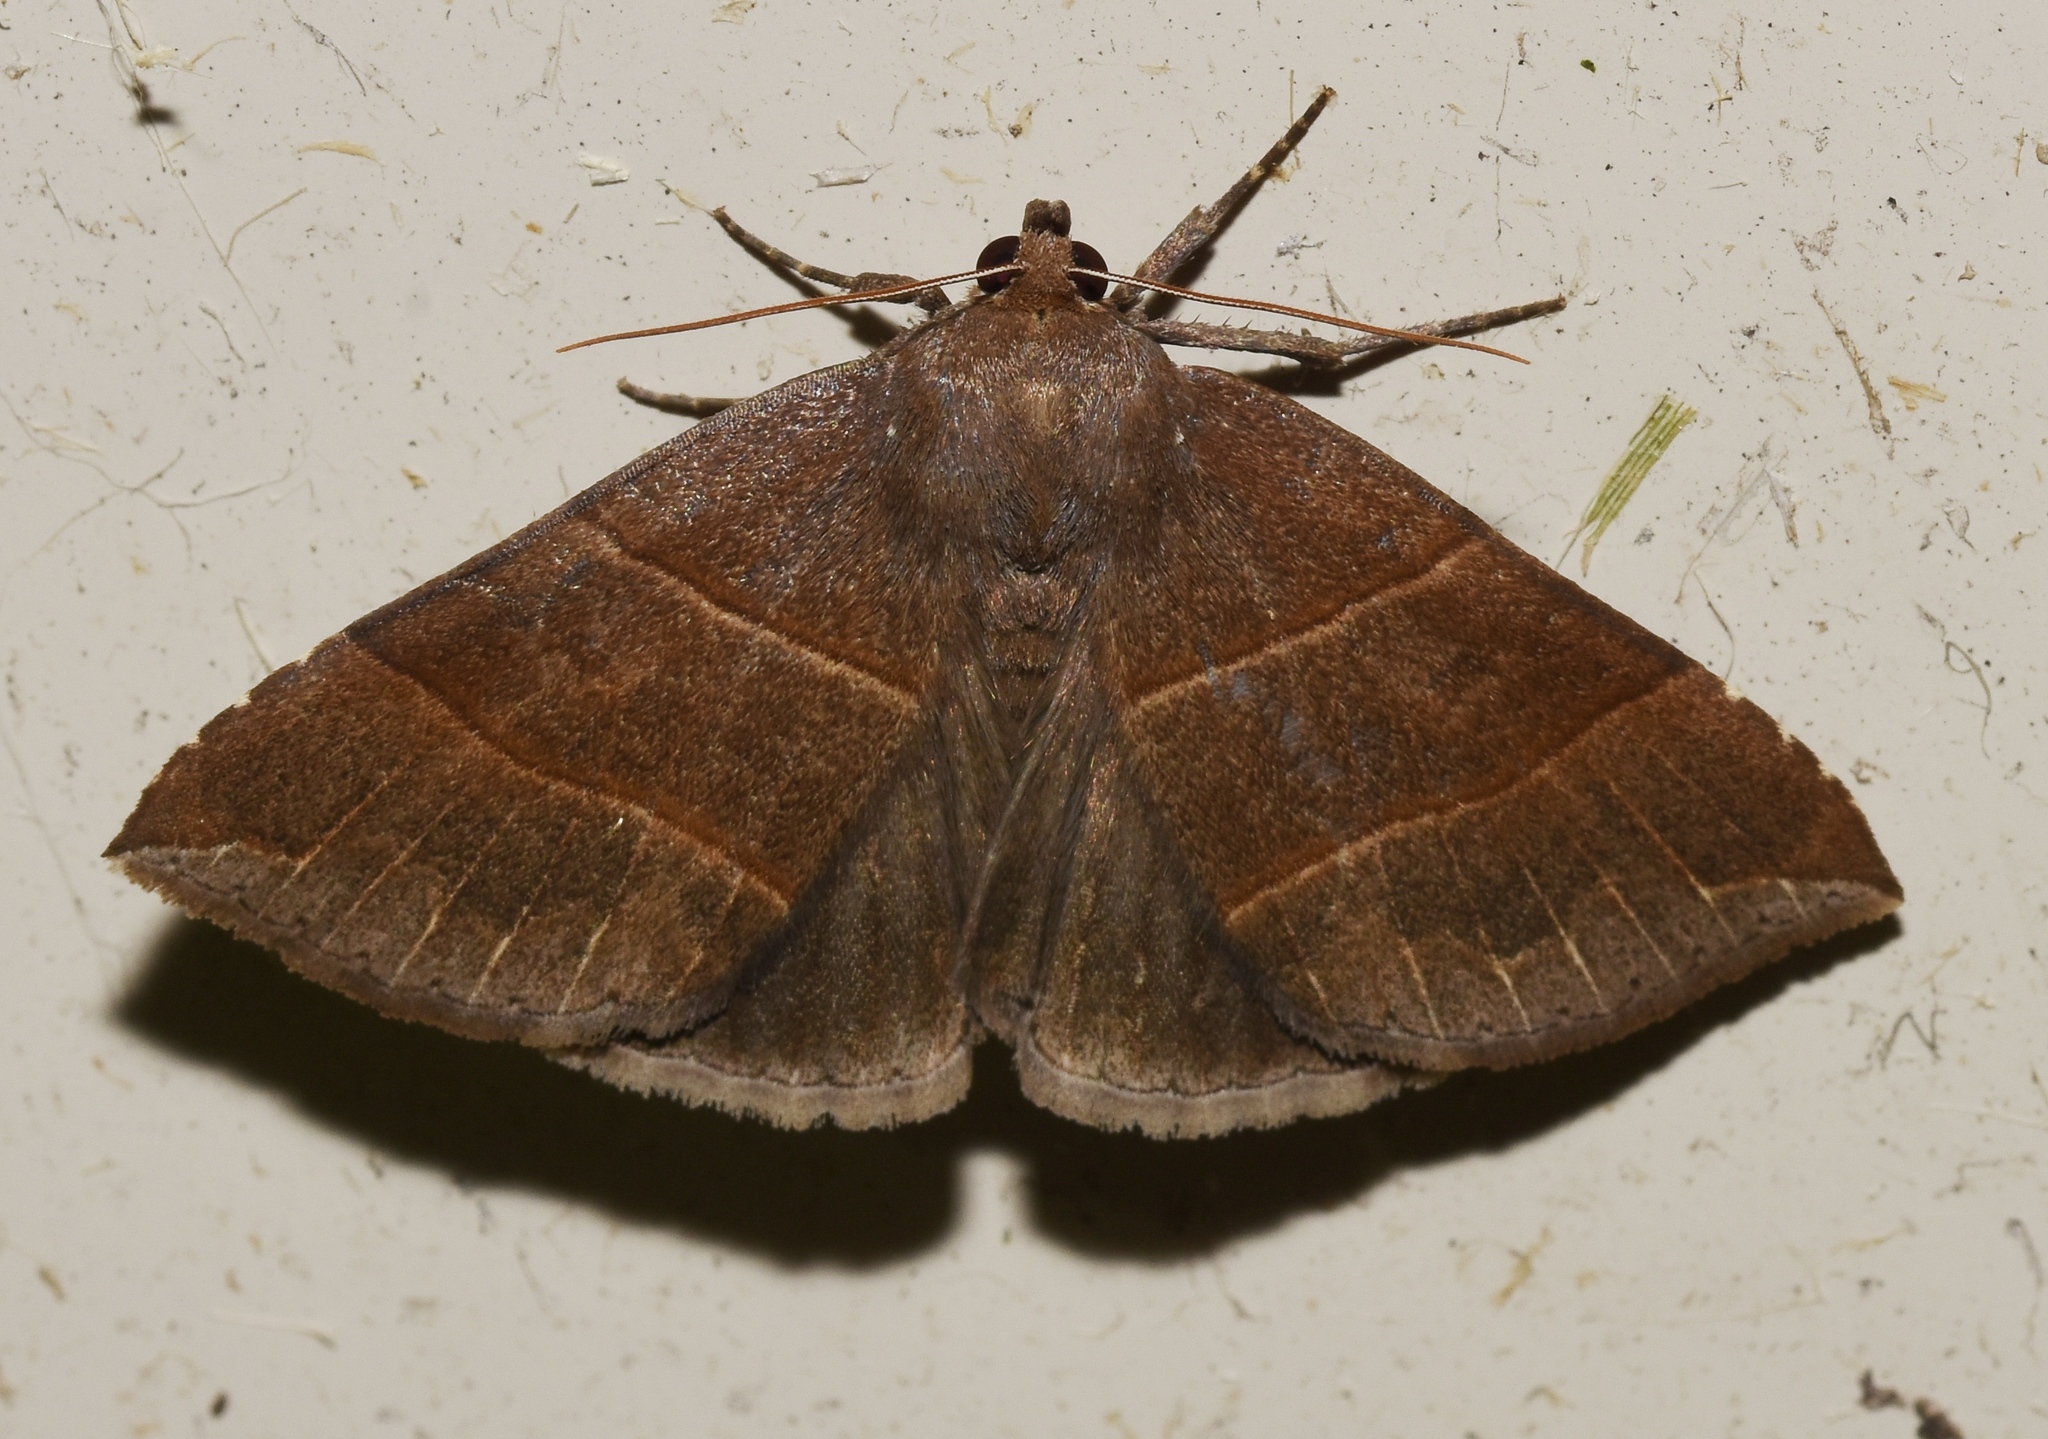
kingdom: Animalia
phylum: Arthropoda
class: Insecta
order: Lepidoptera
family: Erebidae
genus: Parallelia
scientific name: Parallelia bistriaris
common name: Maple looper moth
